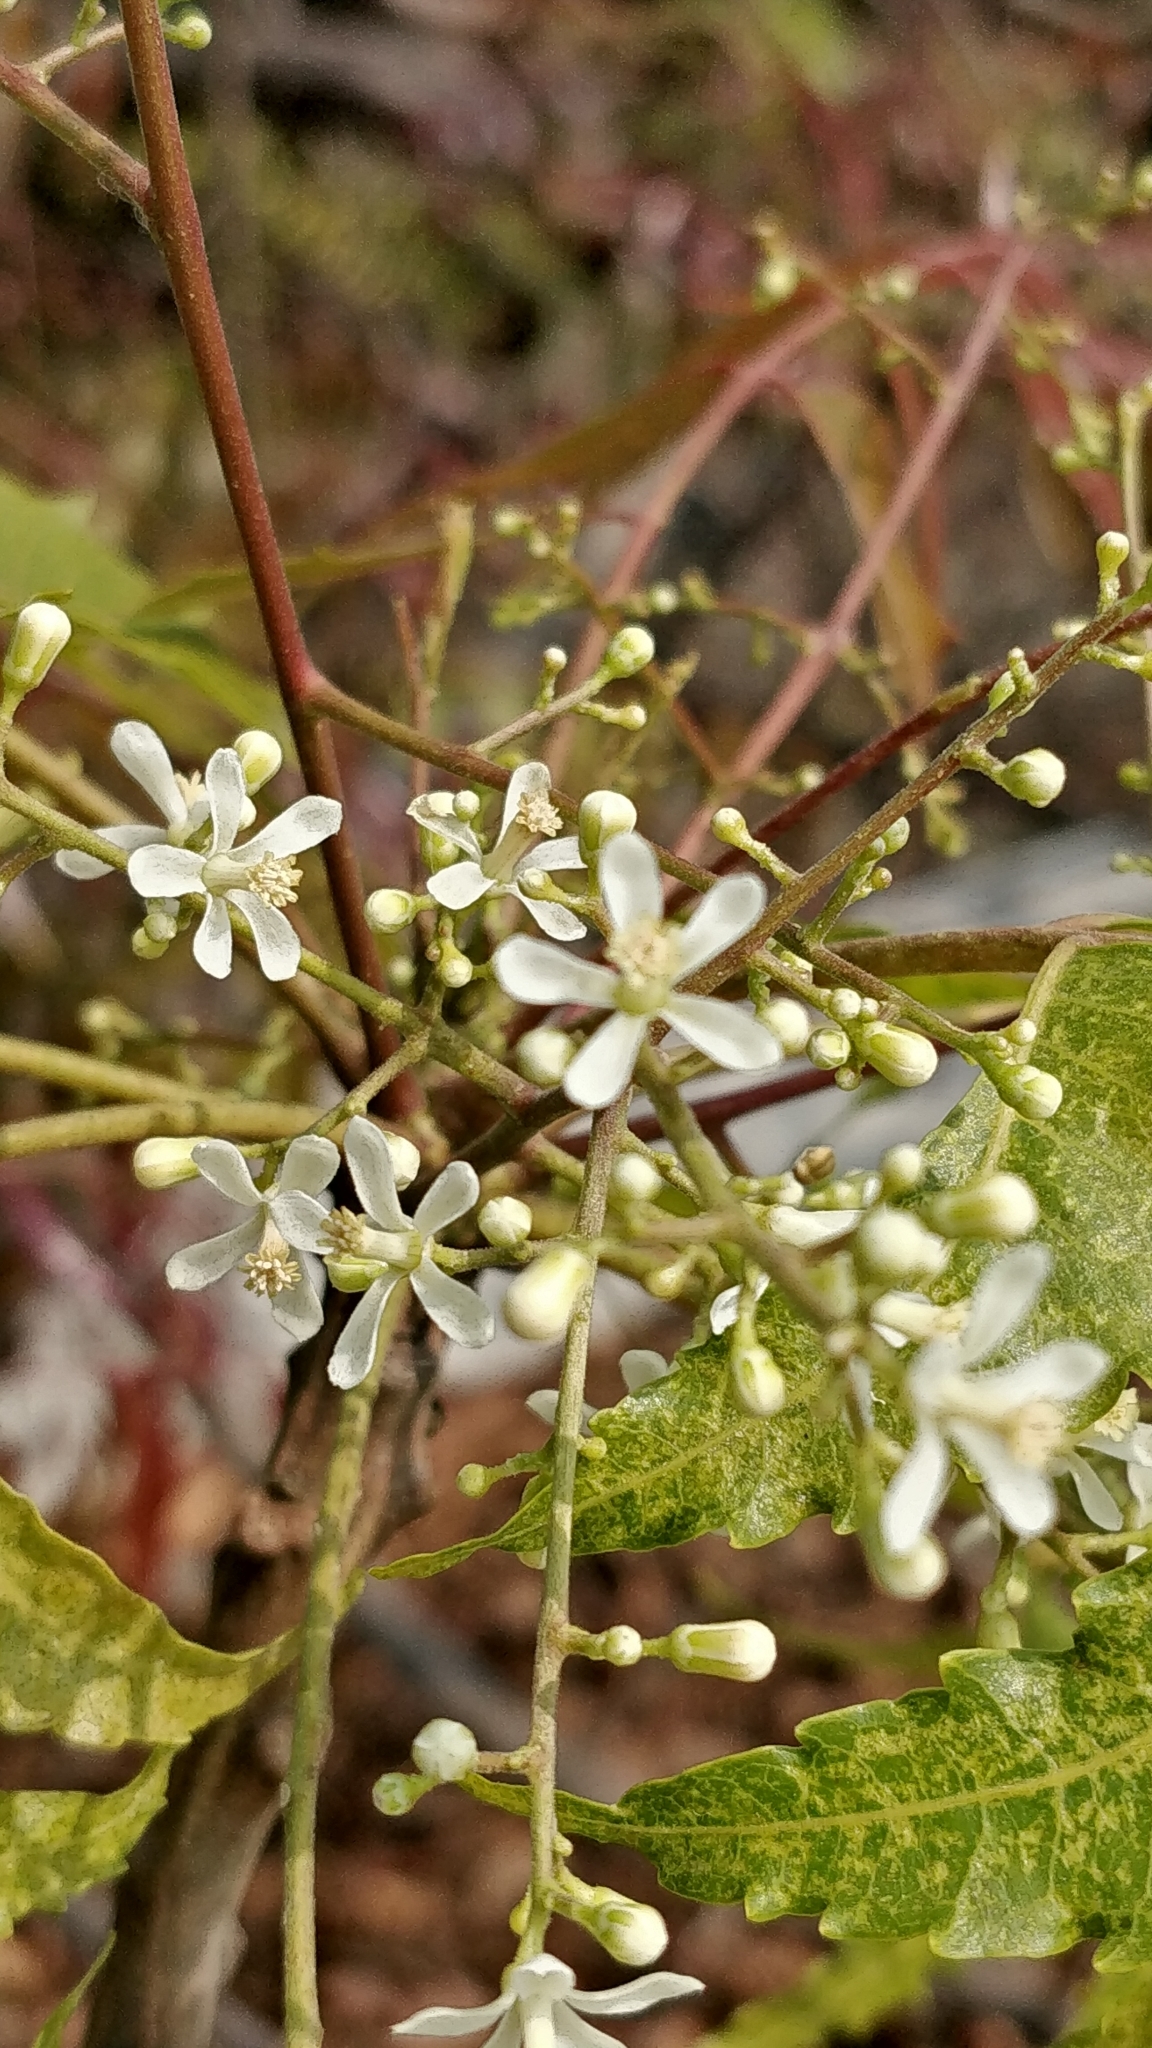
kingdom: Plantae
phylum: Tracheophyta
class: Magnoliopsida
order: Sapindales
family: Meliaceae
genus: Azadirachta
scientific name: Azadirachta indica
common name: Neem
